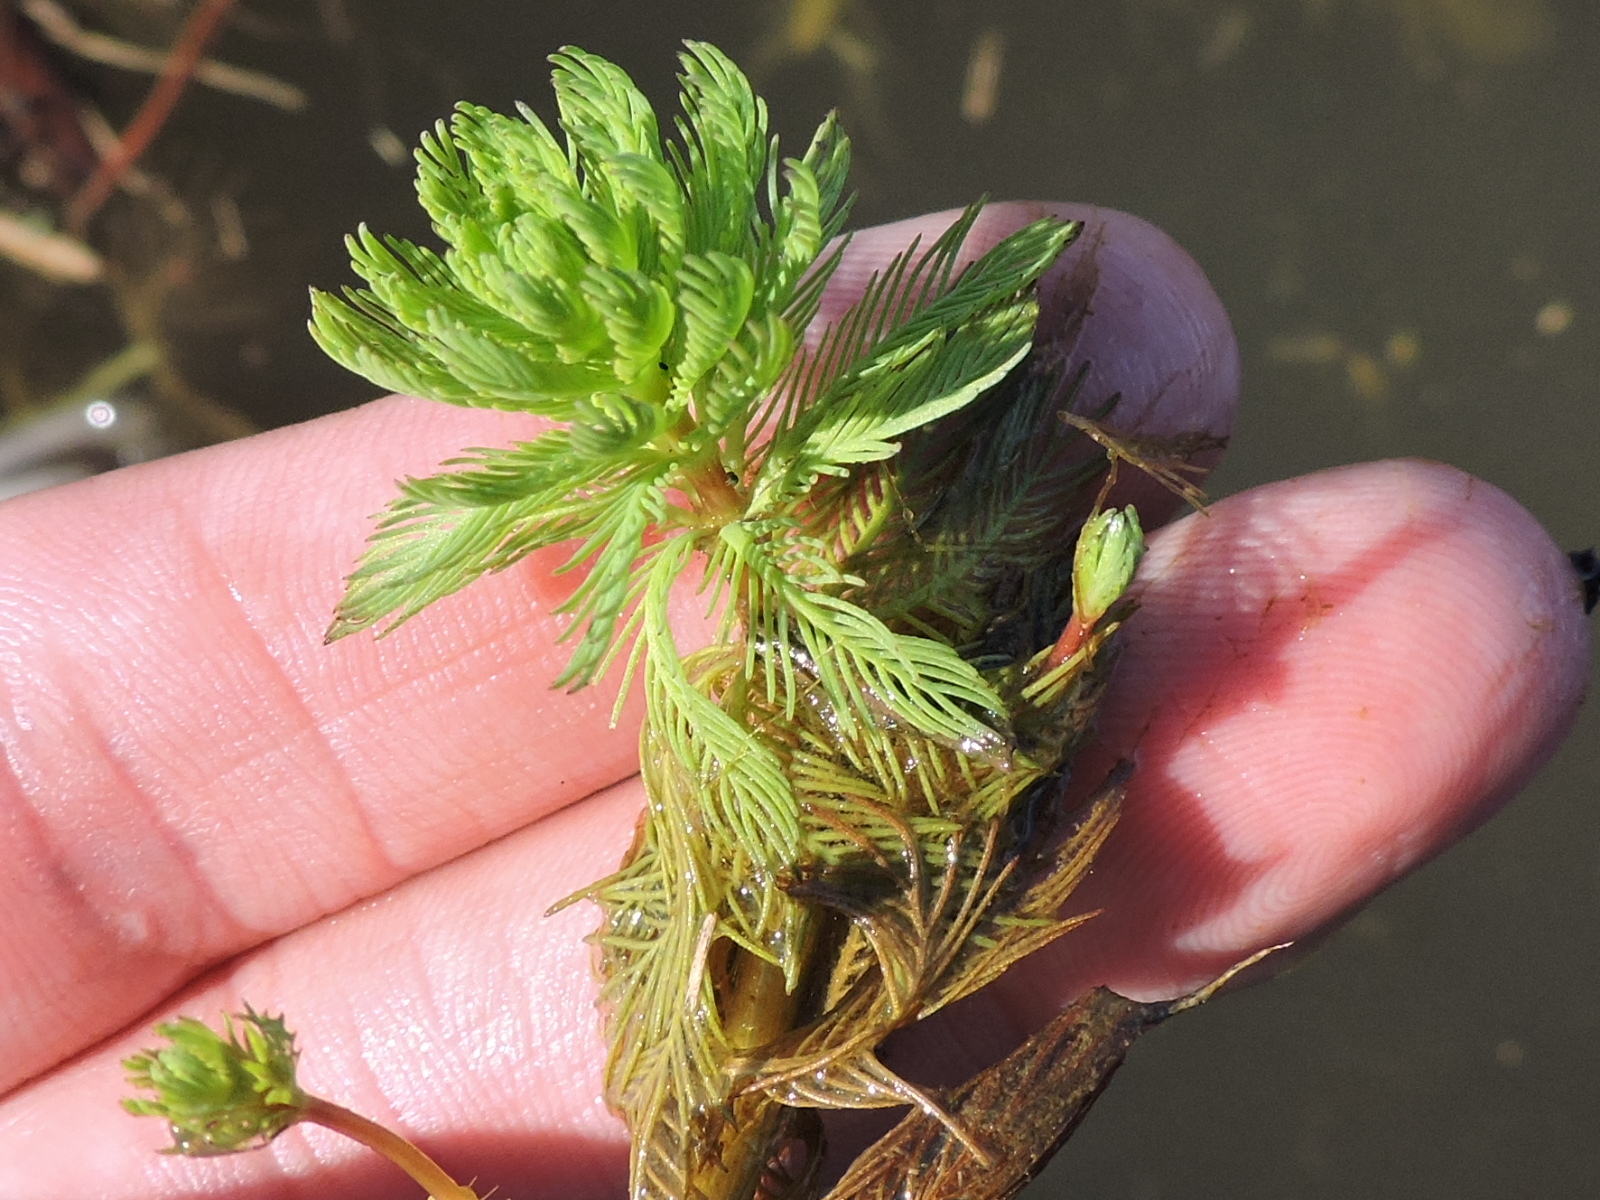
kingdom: Plantae
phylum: Tracheophyta
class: Magnoliopsida
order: Saxifragales
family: Haloragaceae
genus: Myriophyllum
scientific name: Myriophyllum aquaticum
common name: Parrot's feather
